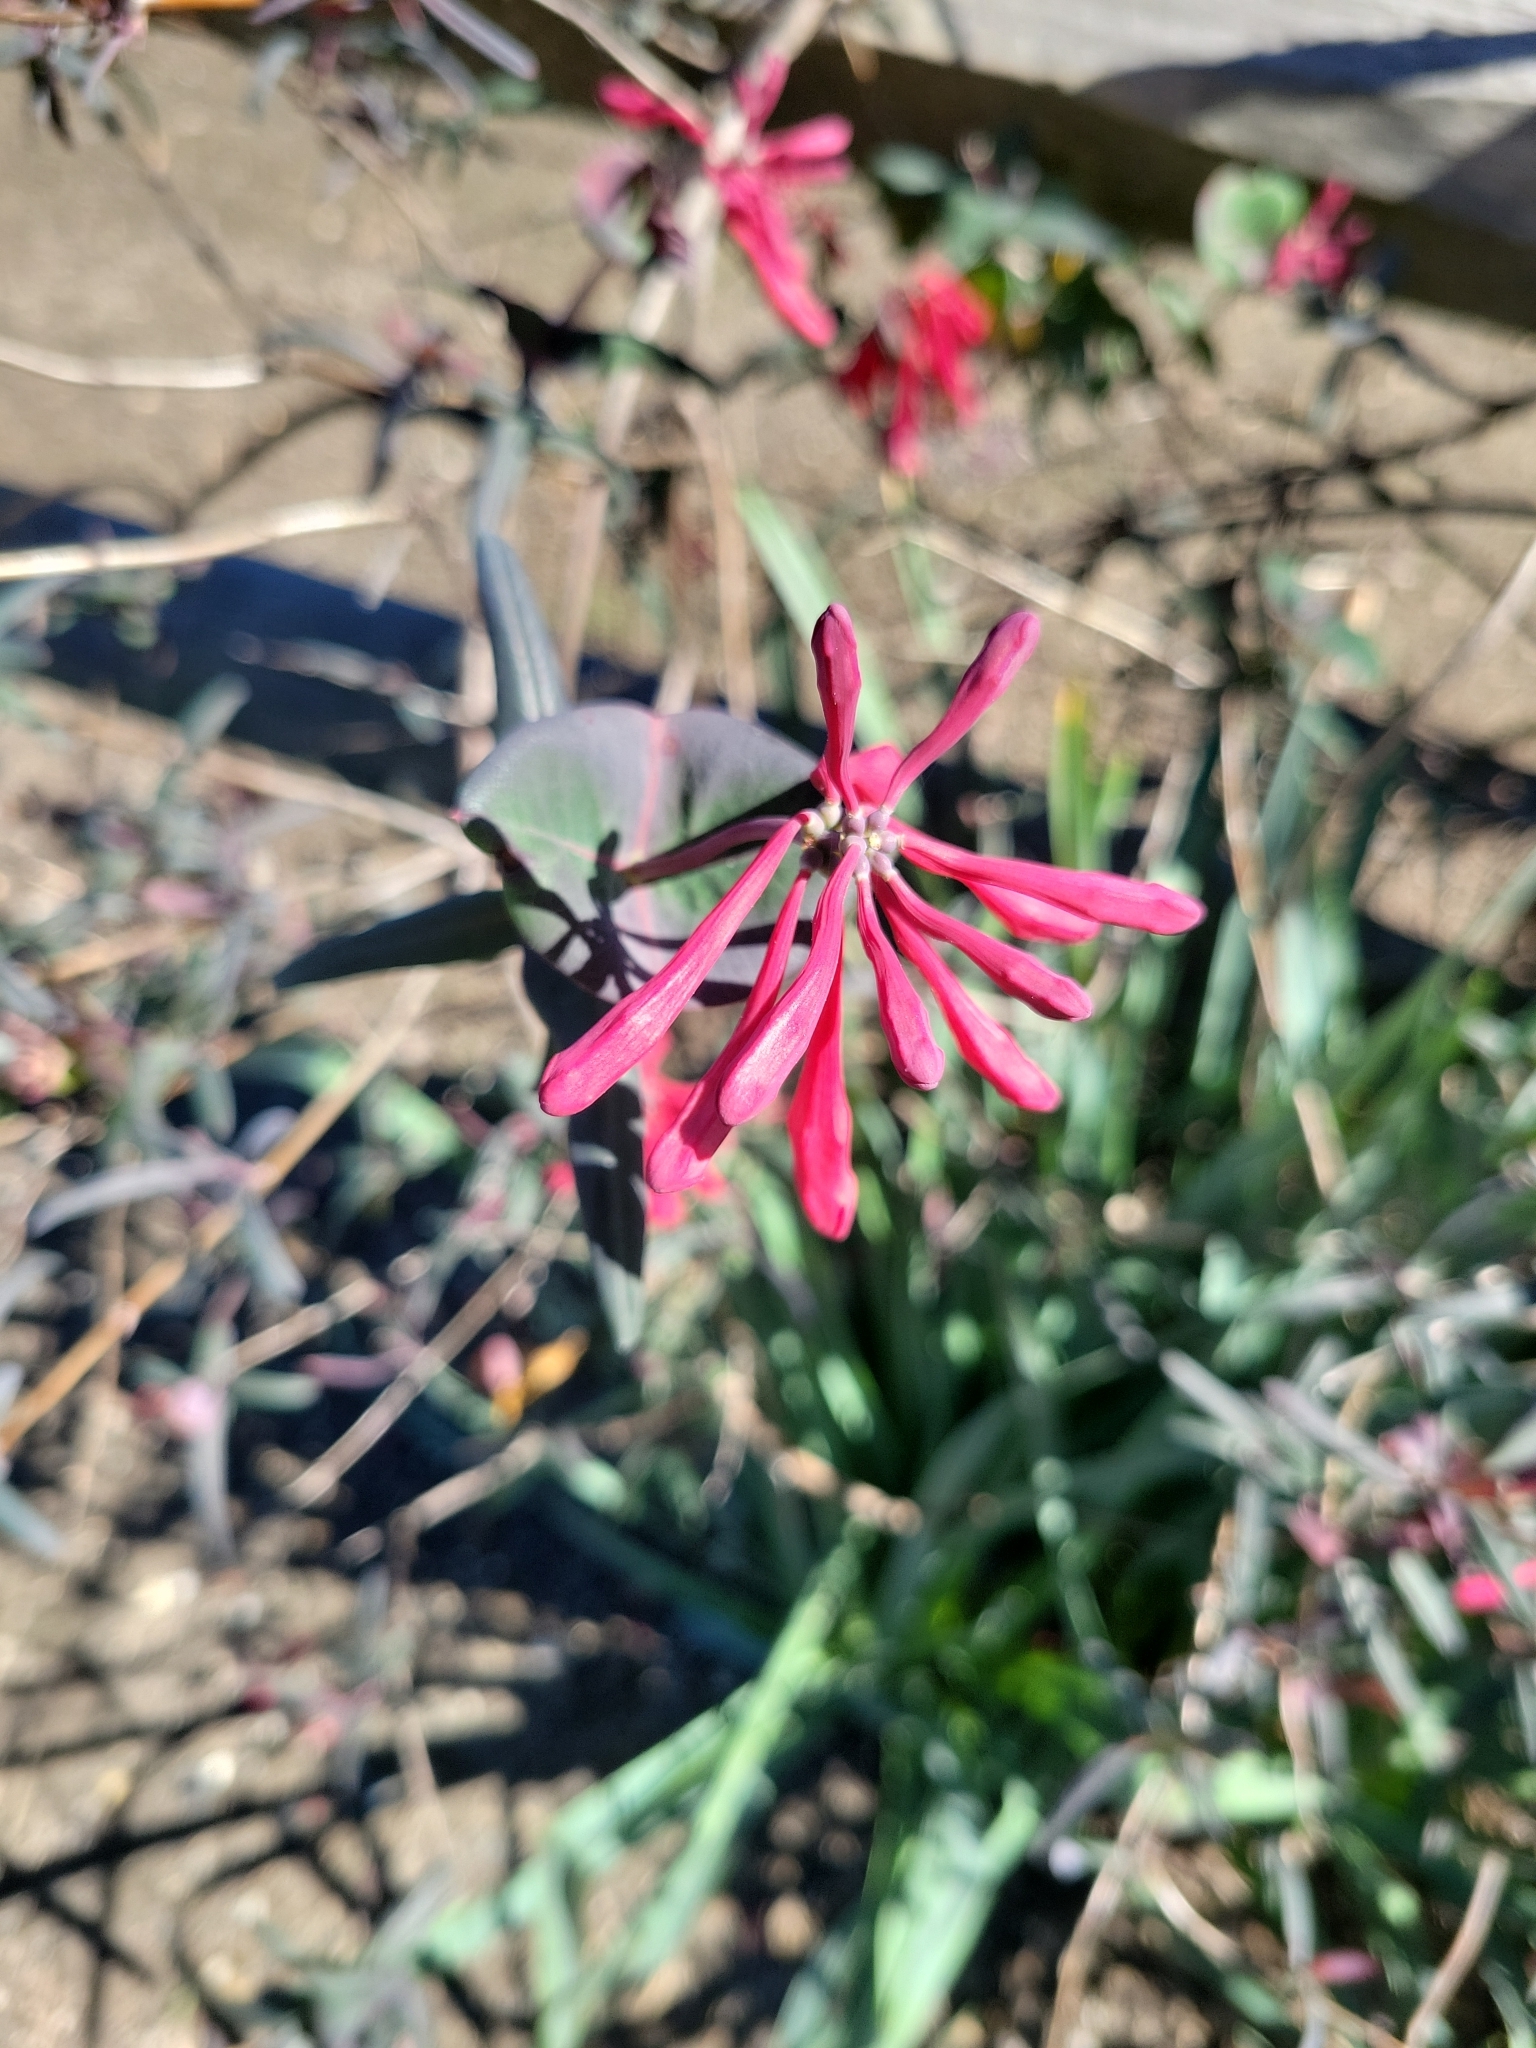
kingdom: Plantae
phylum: Tracheophyta
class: Magnoliopsida
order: Dipsacales
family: Caprifoliaceae
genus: Lonicera
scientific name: Lonicera sempervirens
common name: Coral honeysuckle
